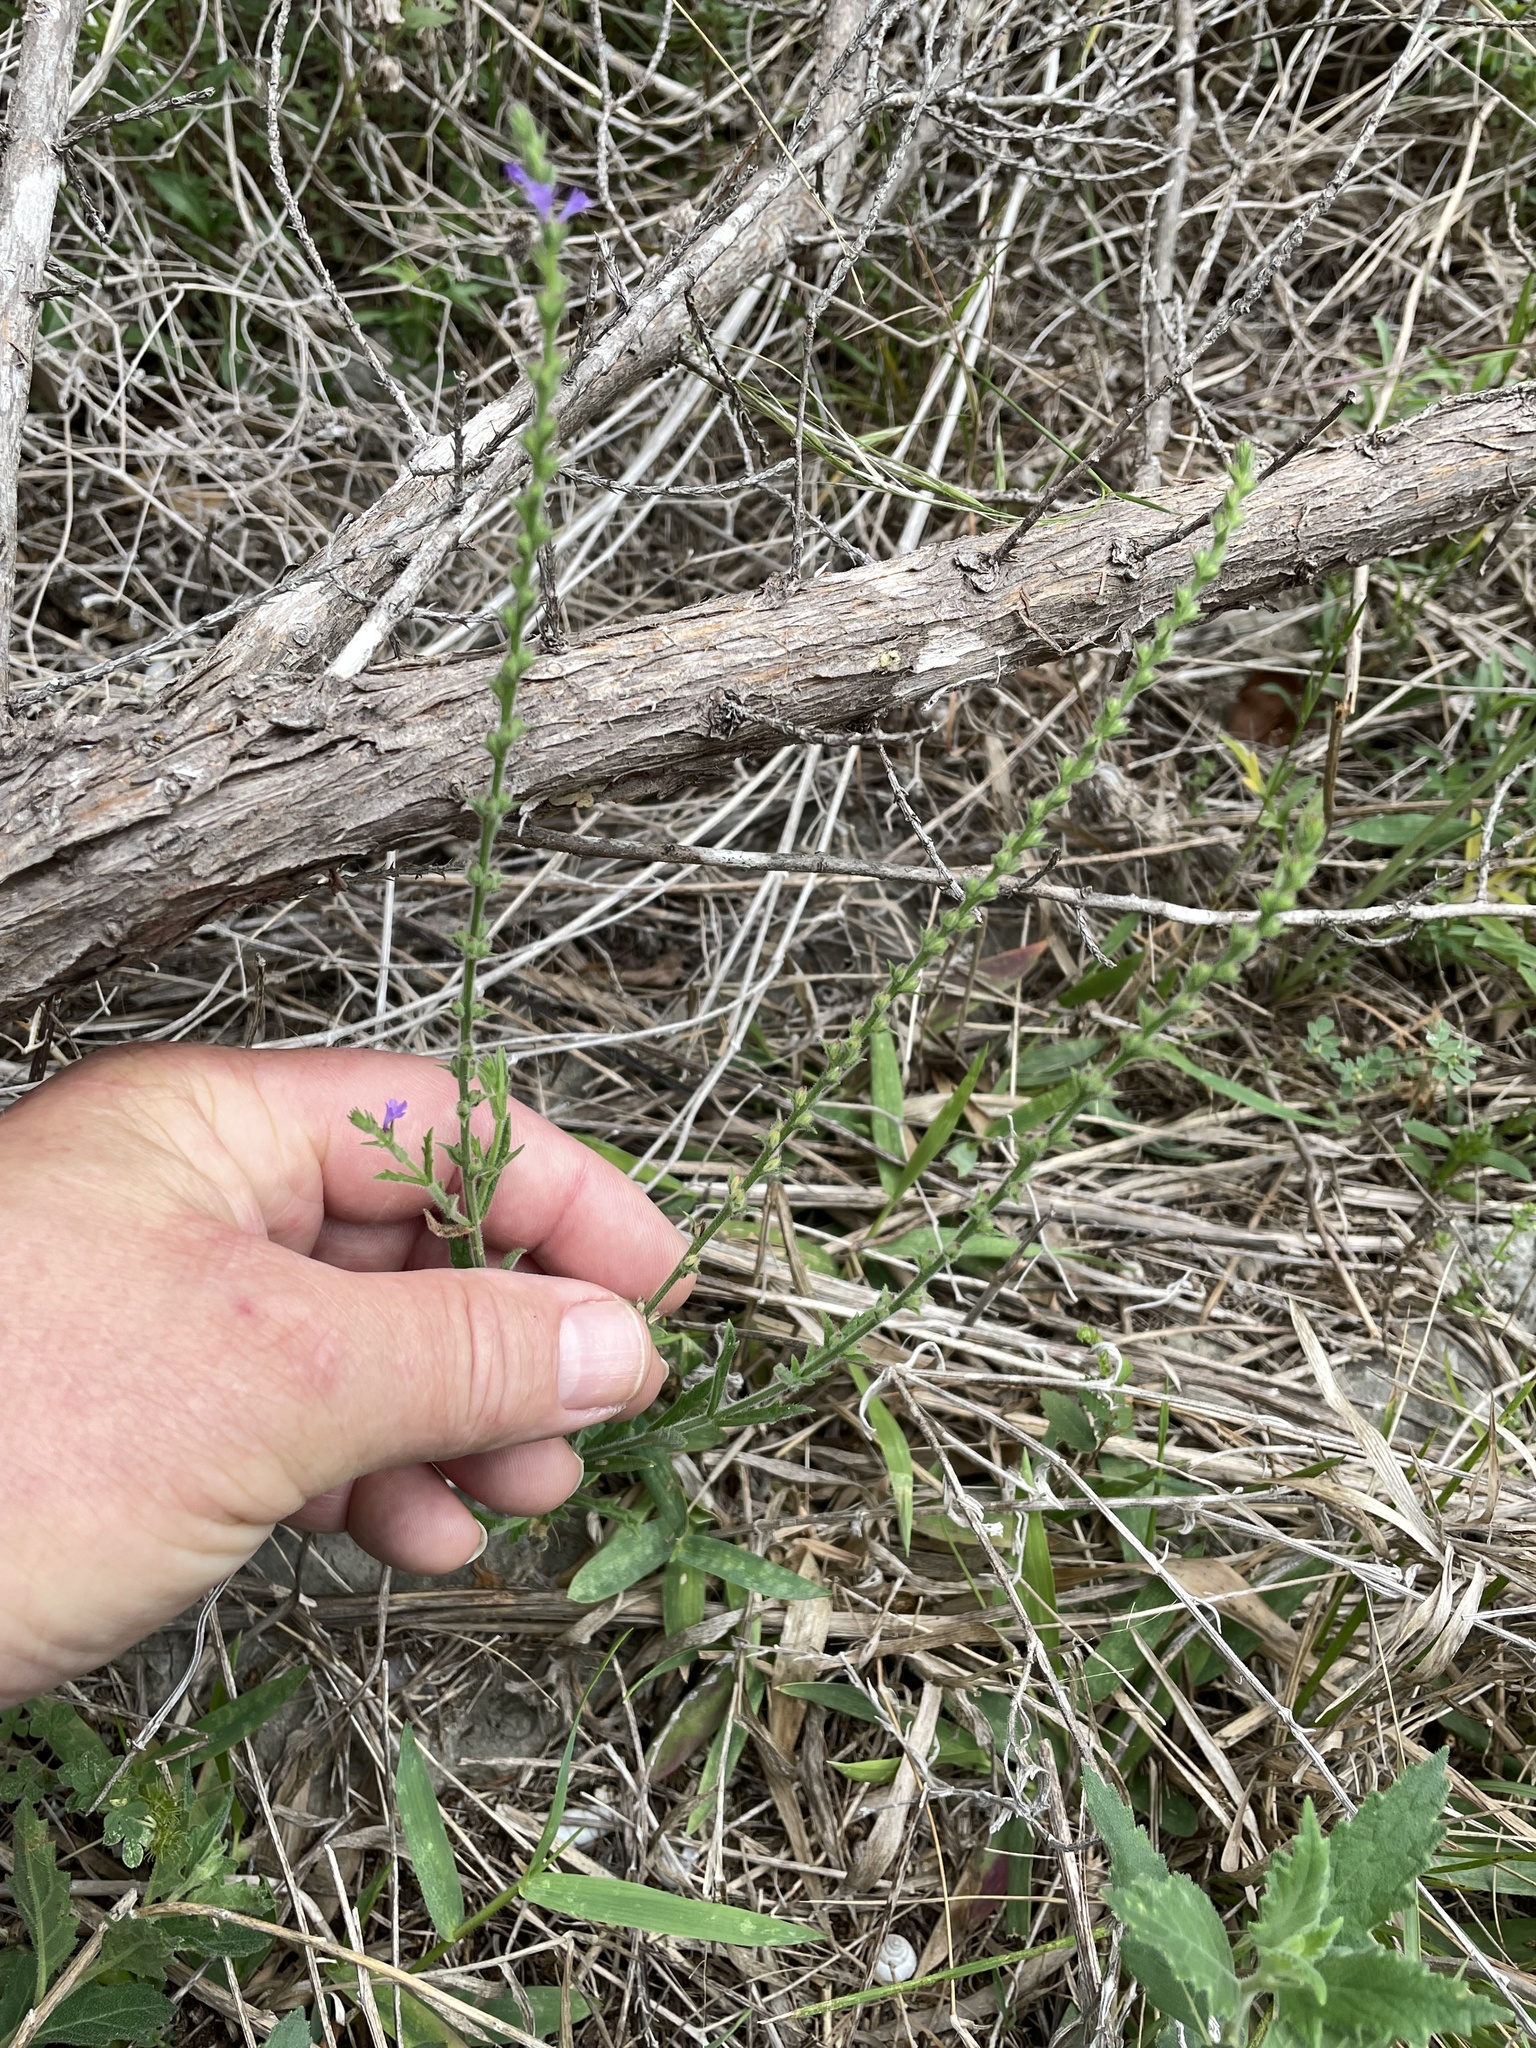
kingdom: Plantae
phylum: Tracheophyta
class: Magnoliopsida
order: Lamiales
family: Verbenaceae
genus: Verbena
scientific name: Verbena canescens
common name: Gray vervain
